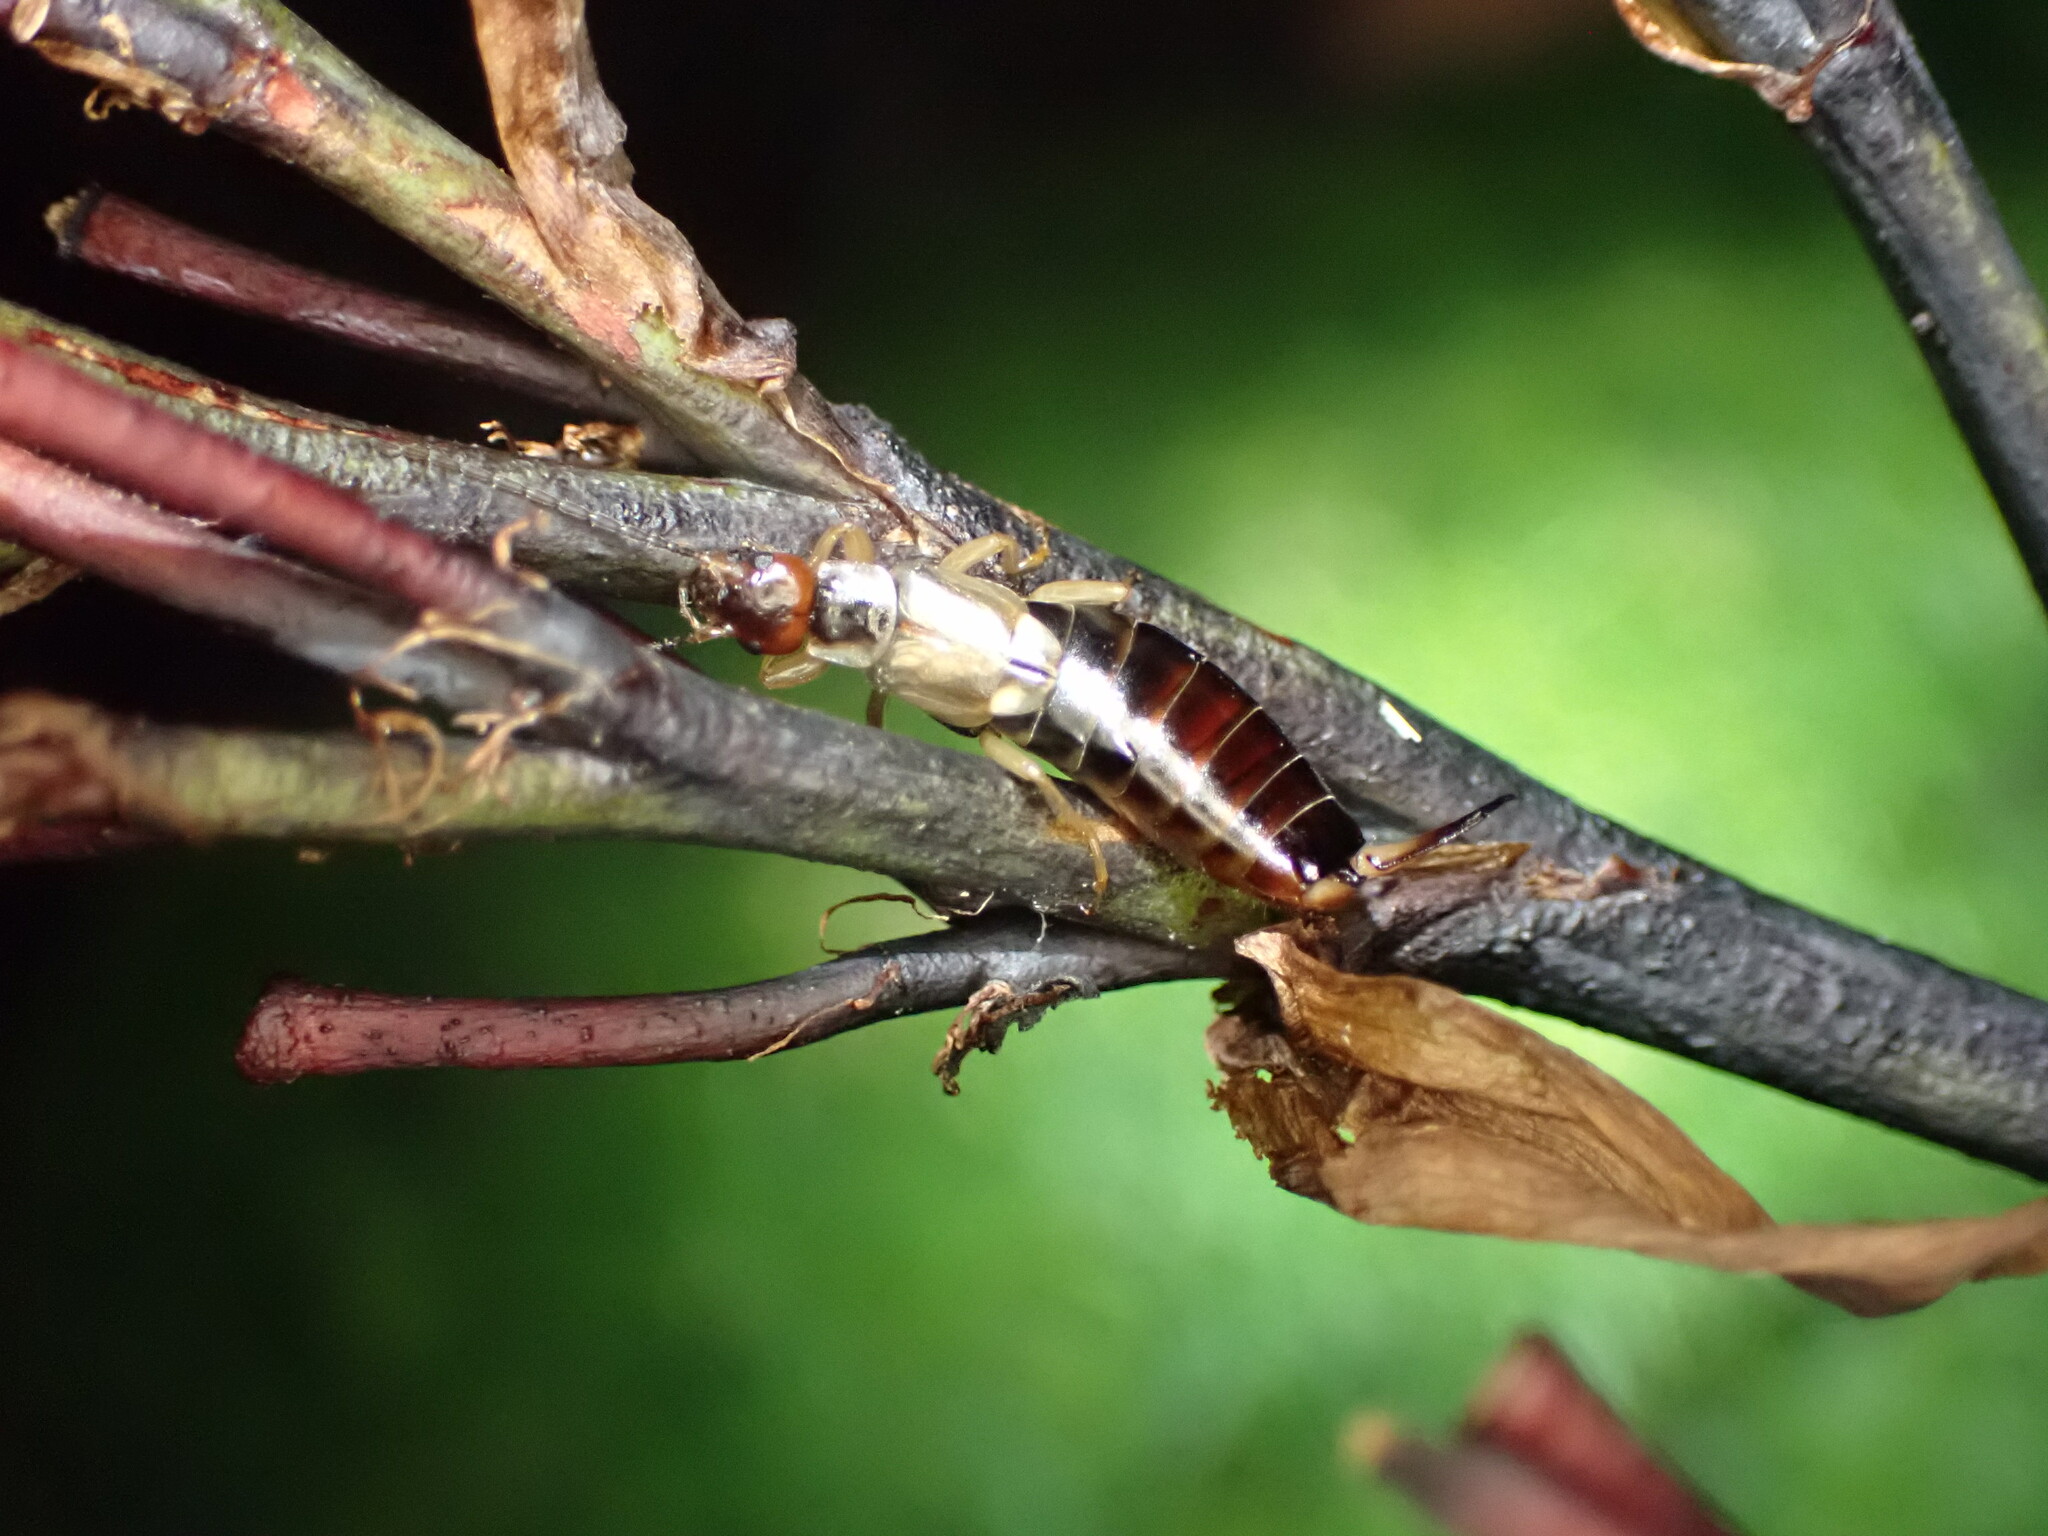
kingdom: Animalia
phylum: Arthropoda
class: Insecta
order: Dermaptera
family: Forficulidae
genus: Forficula
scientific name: Forficula
